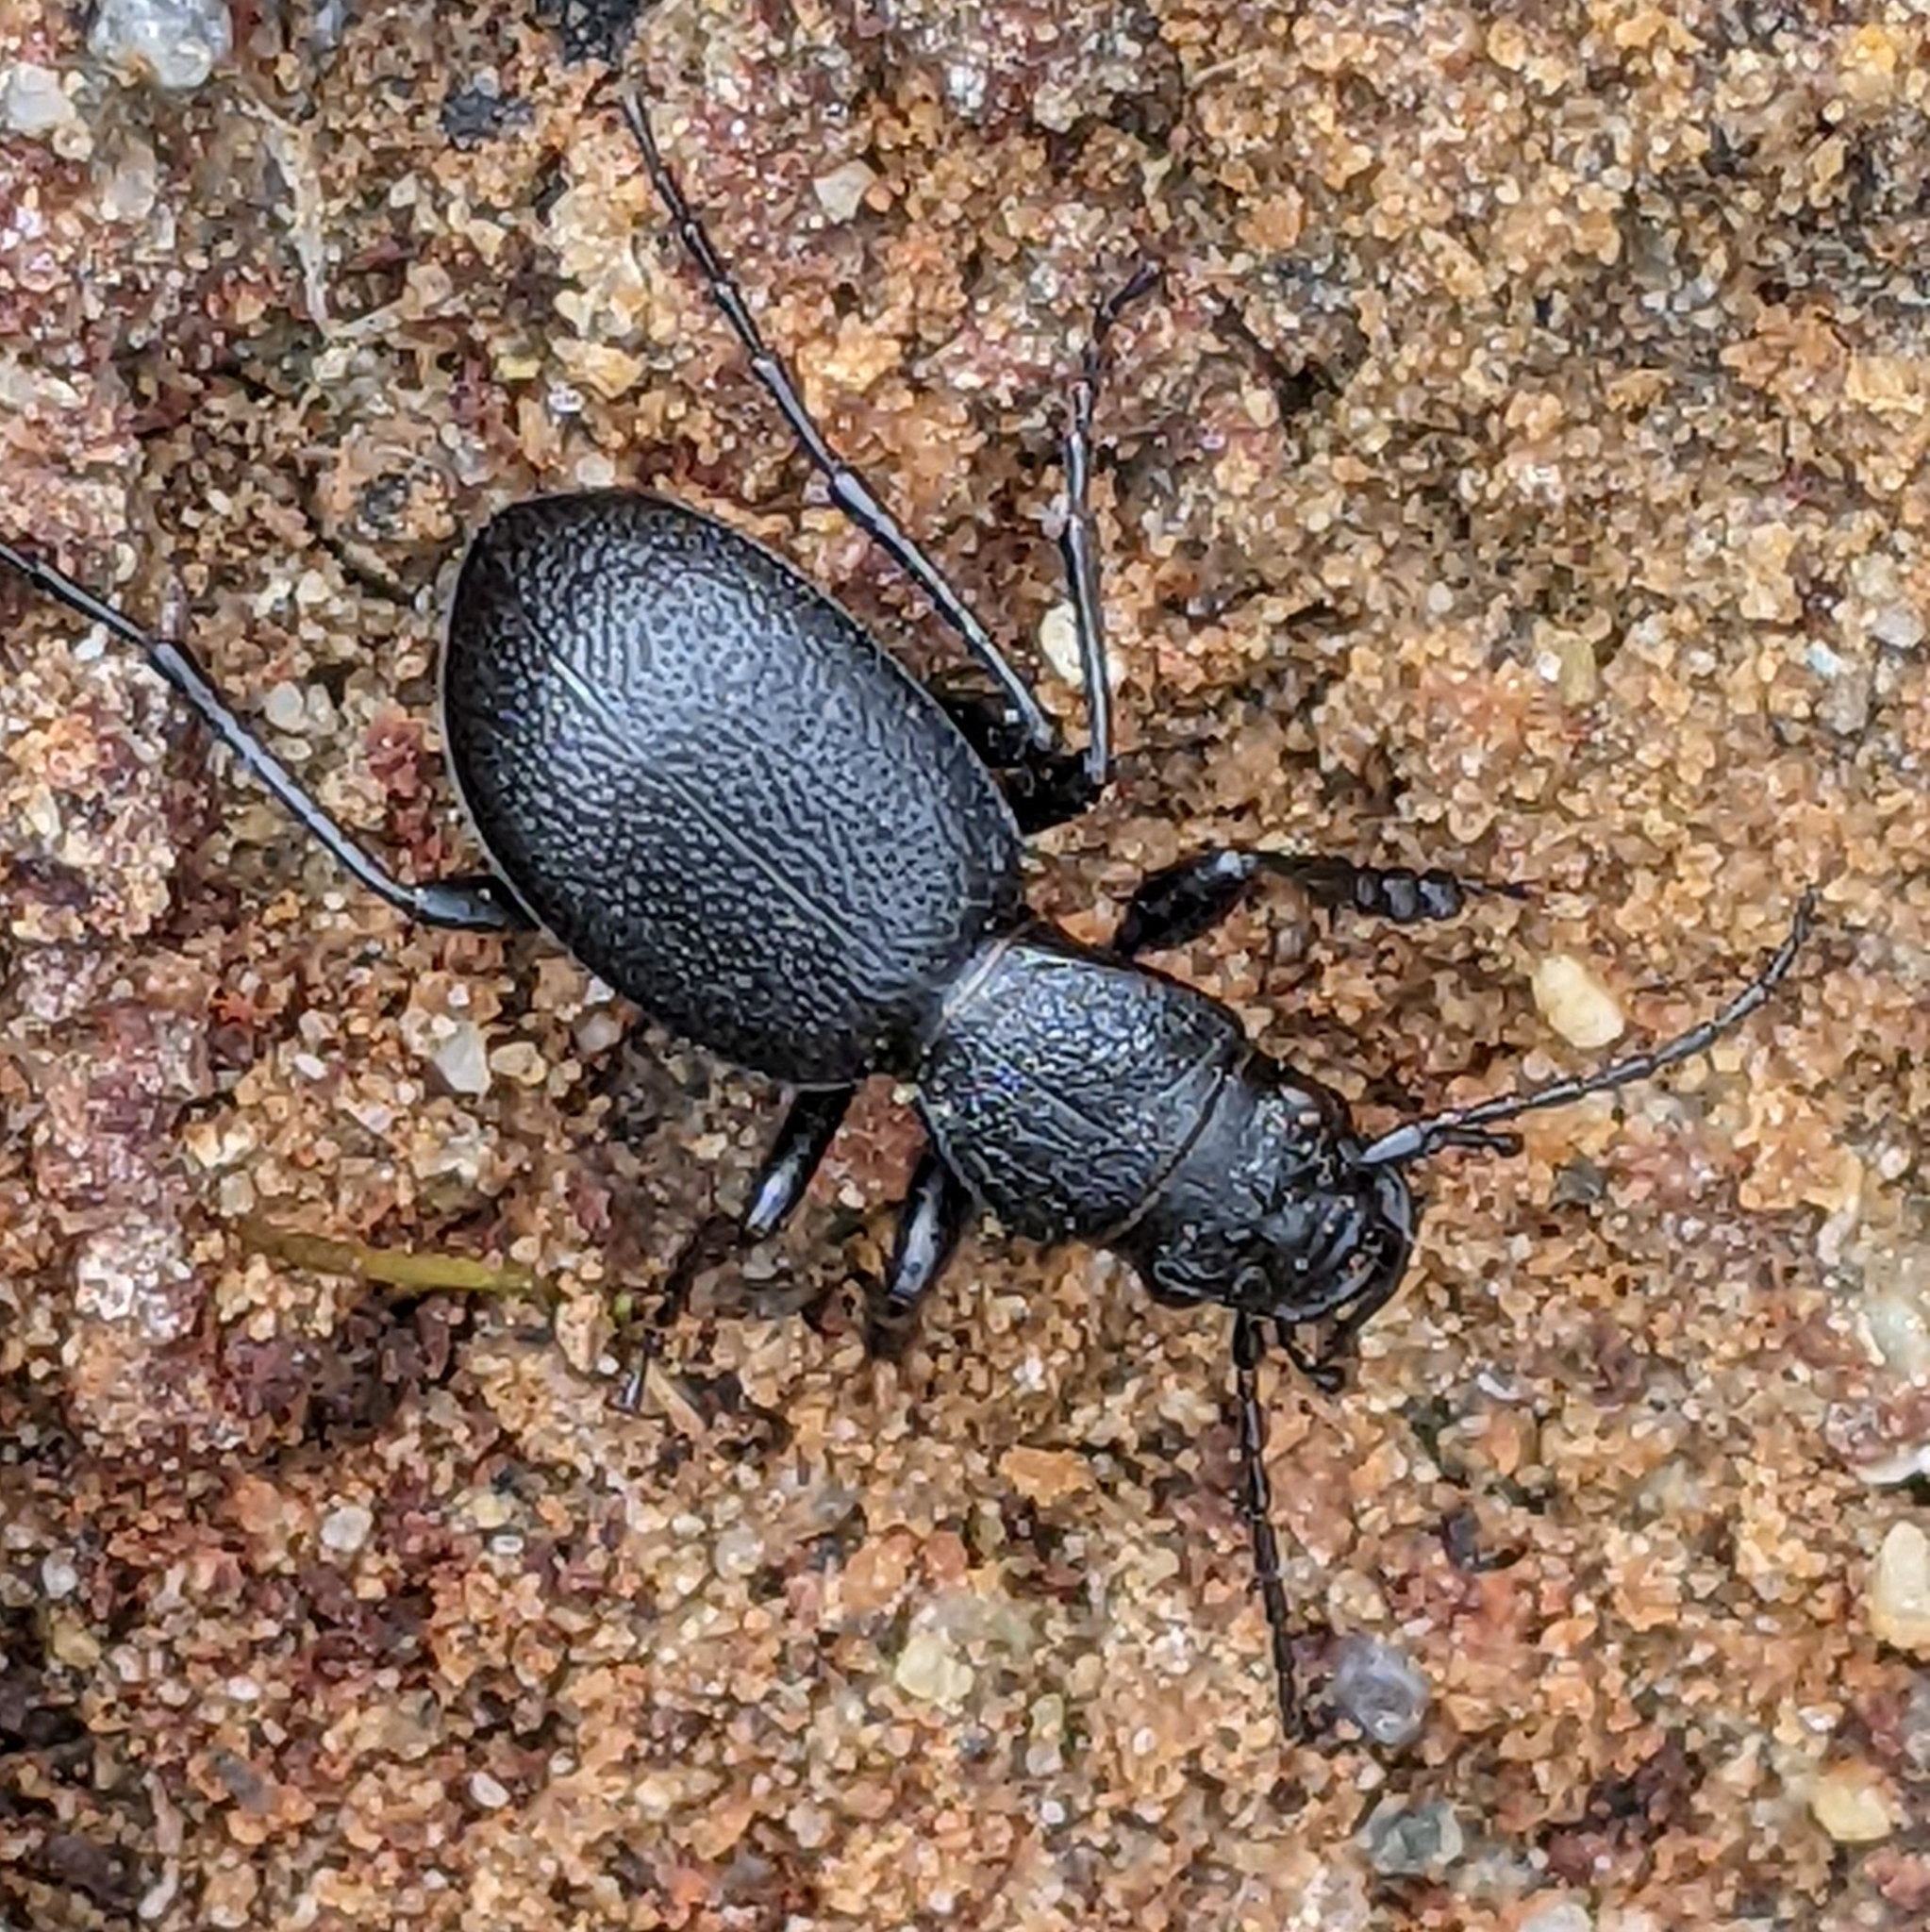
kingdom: Animalia
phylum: Arthropoda
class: Insecta
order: Coleoptera
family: Carabidae
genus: Omus
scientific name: Omus californicus
